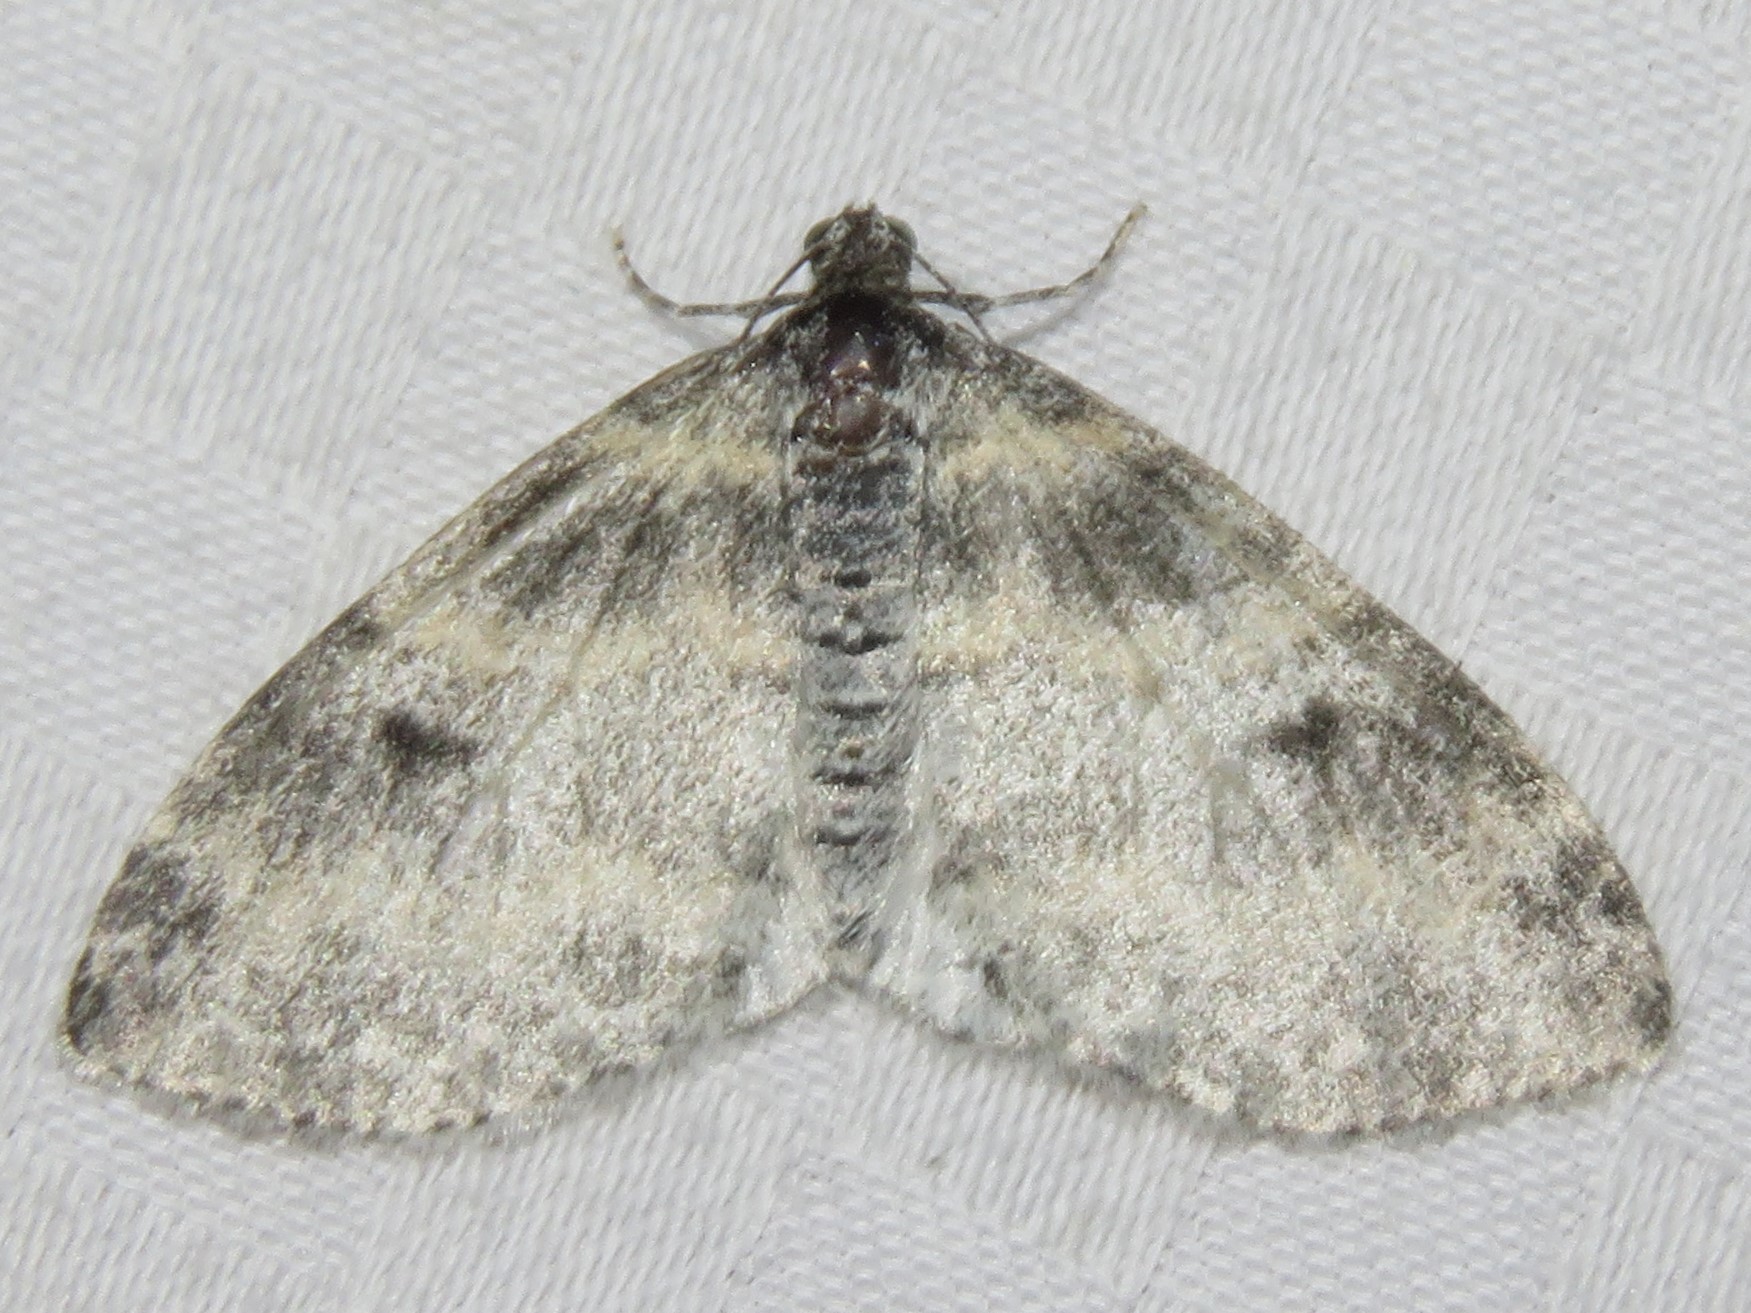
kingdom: Animalia
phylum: Arthropoda
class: Insecta
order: Lepidoptera
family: Geometridae
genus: Lobophora
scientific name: Lobophora nivigerata
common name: Powdered bigwing
